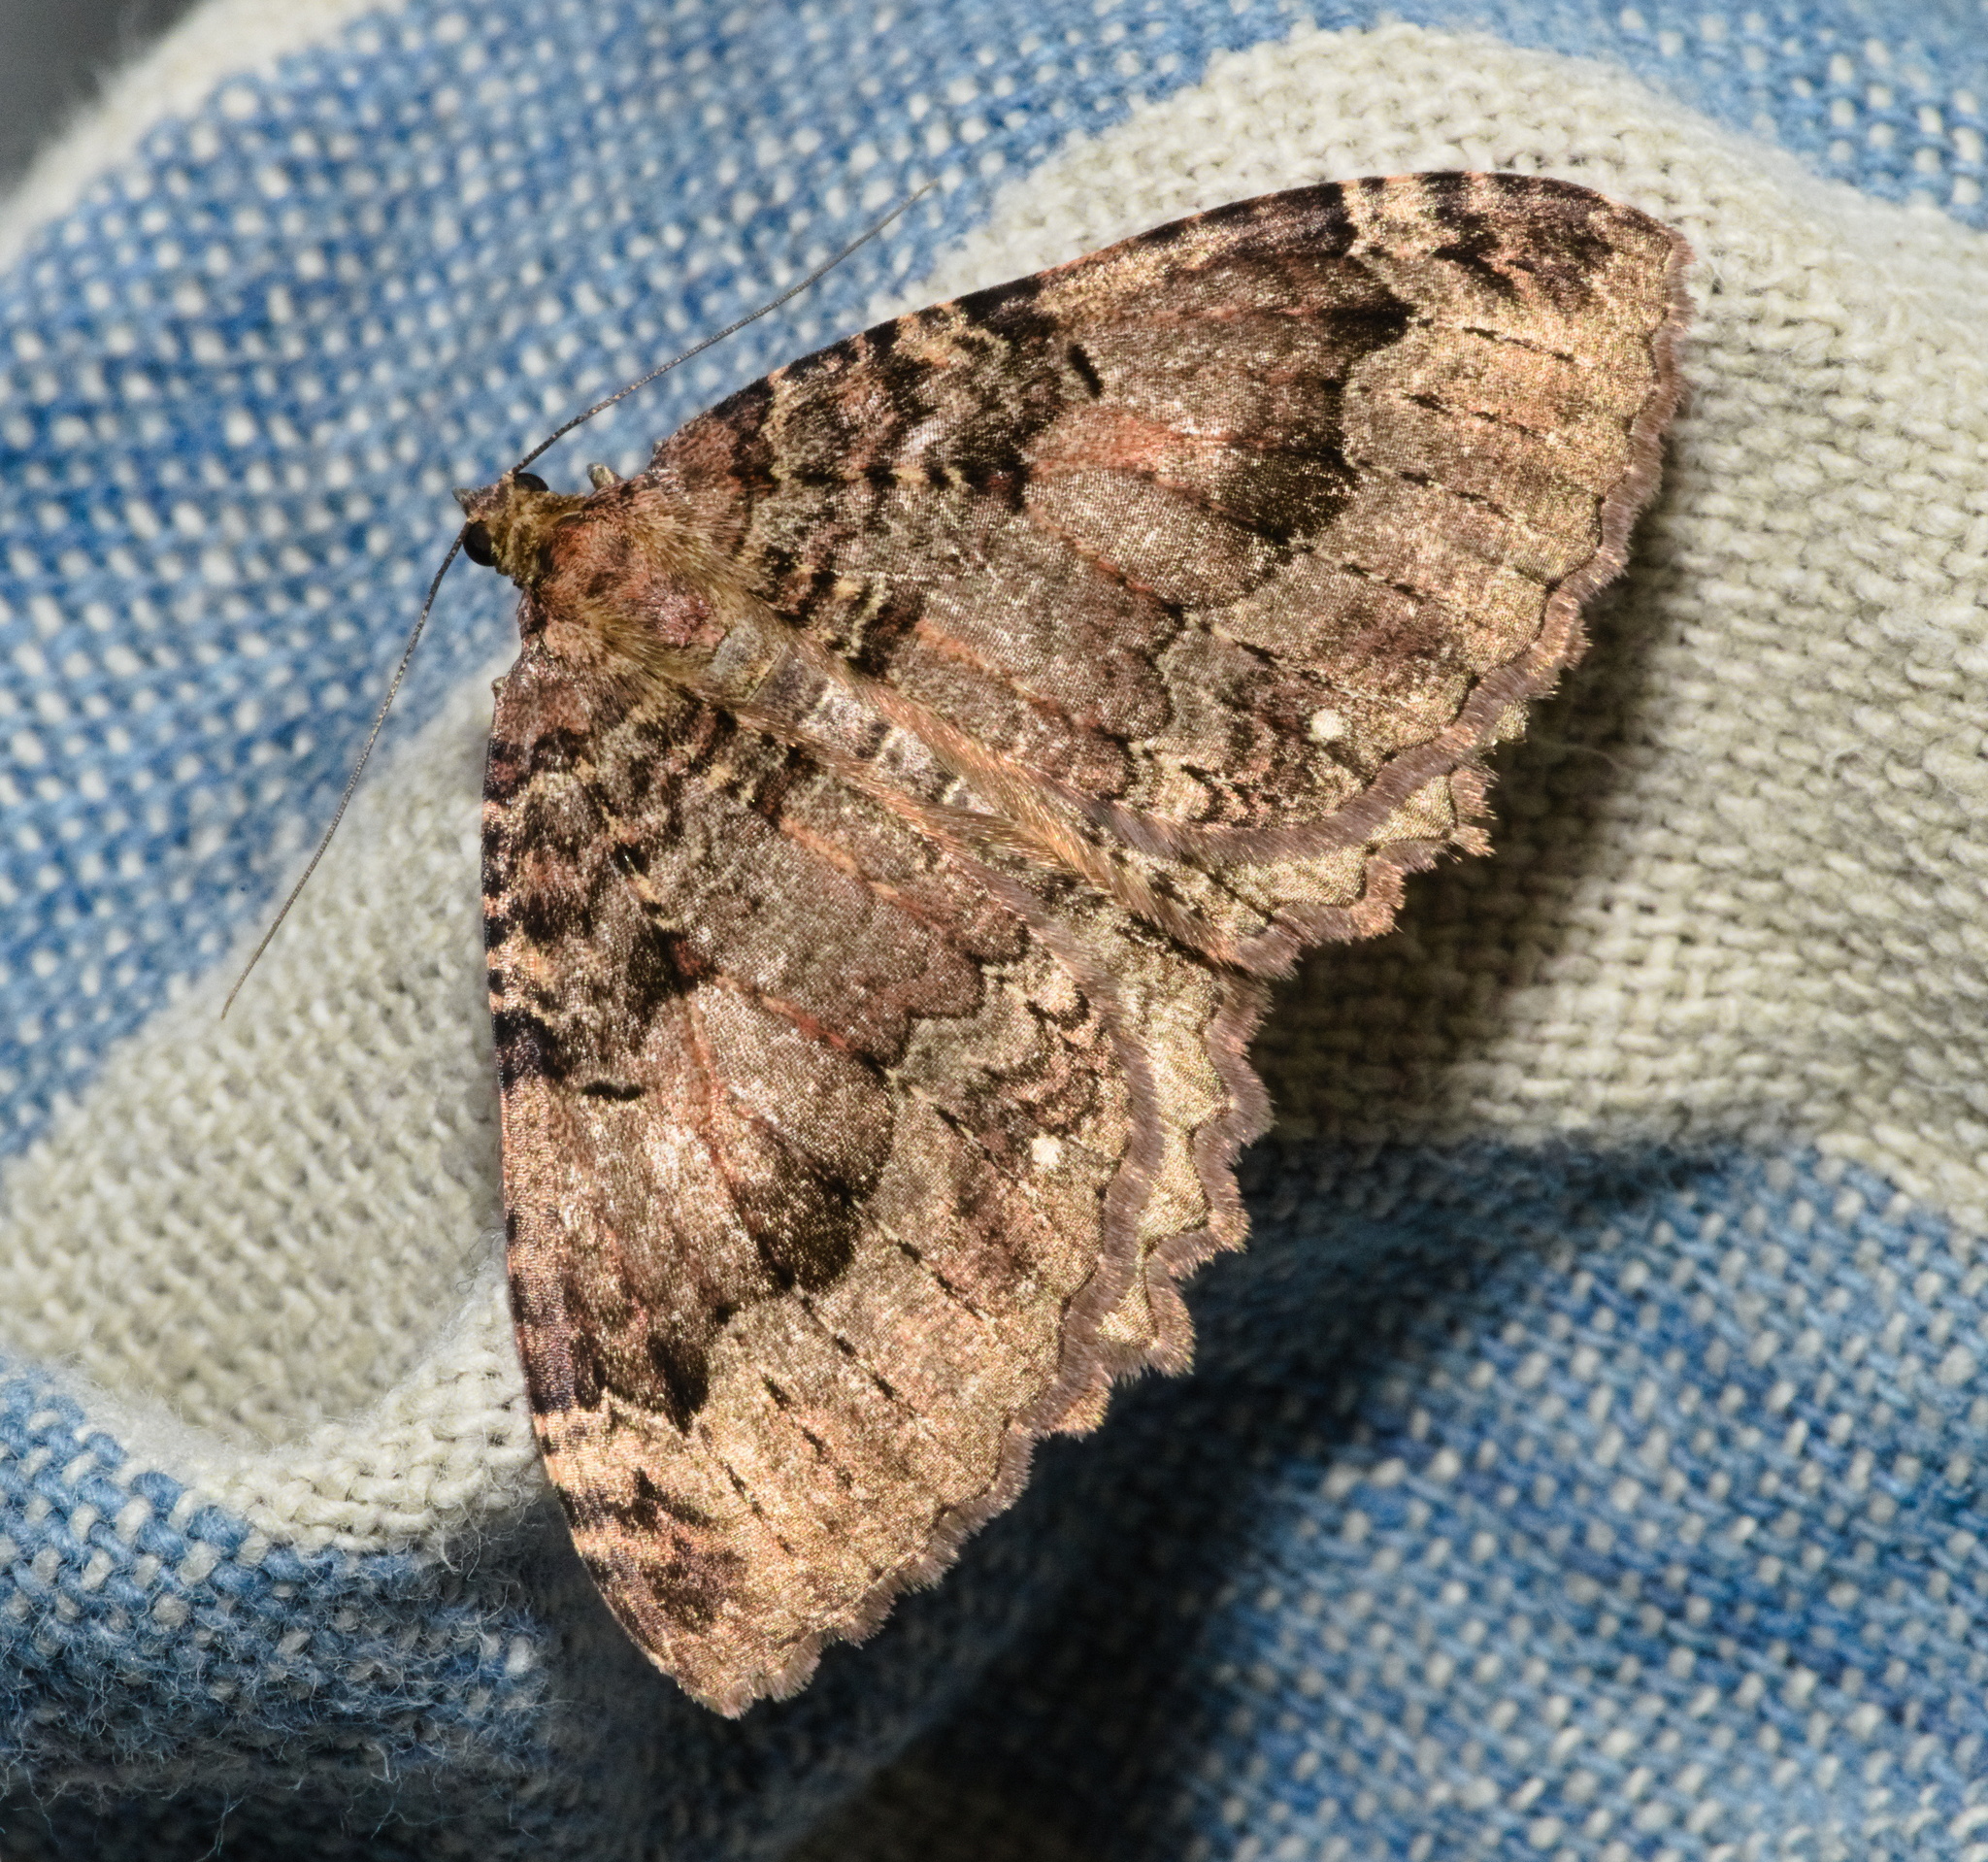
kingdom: Animalia
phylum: Arthropoda
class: Insecta
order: Lepidoptera
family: Geometridae
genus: Triphosa
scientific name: Triphosa dubitata
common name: Tissue
